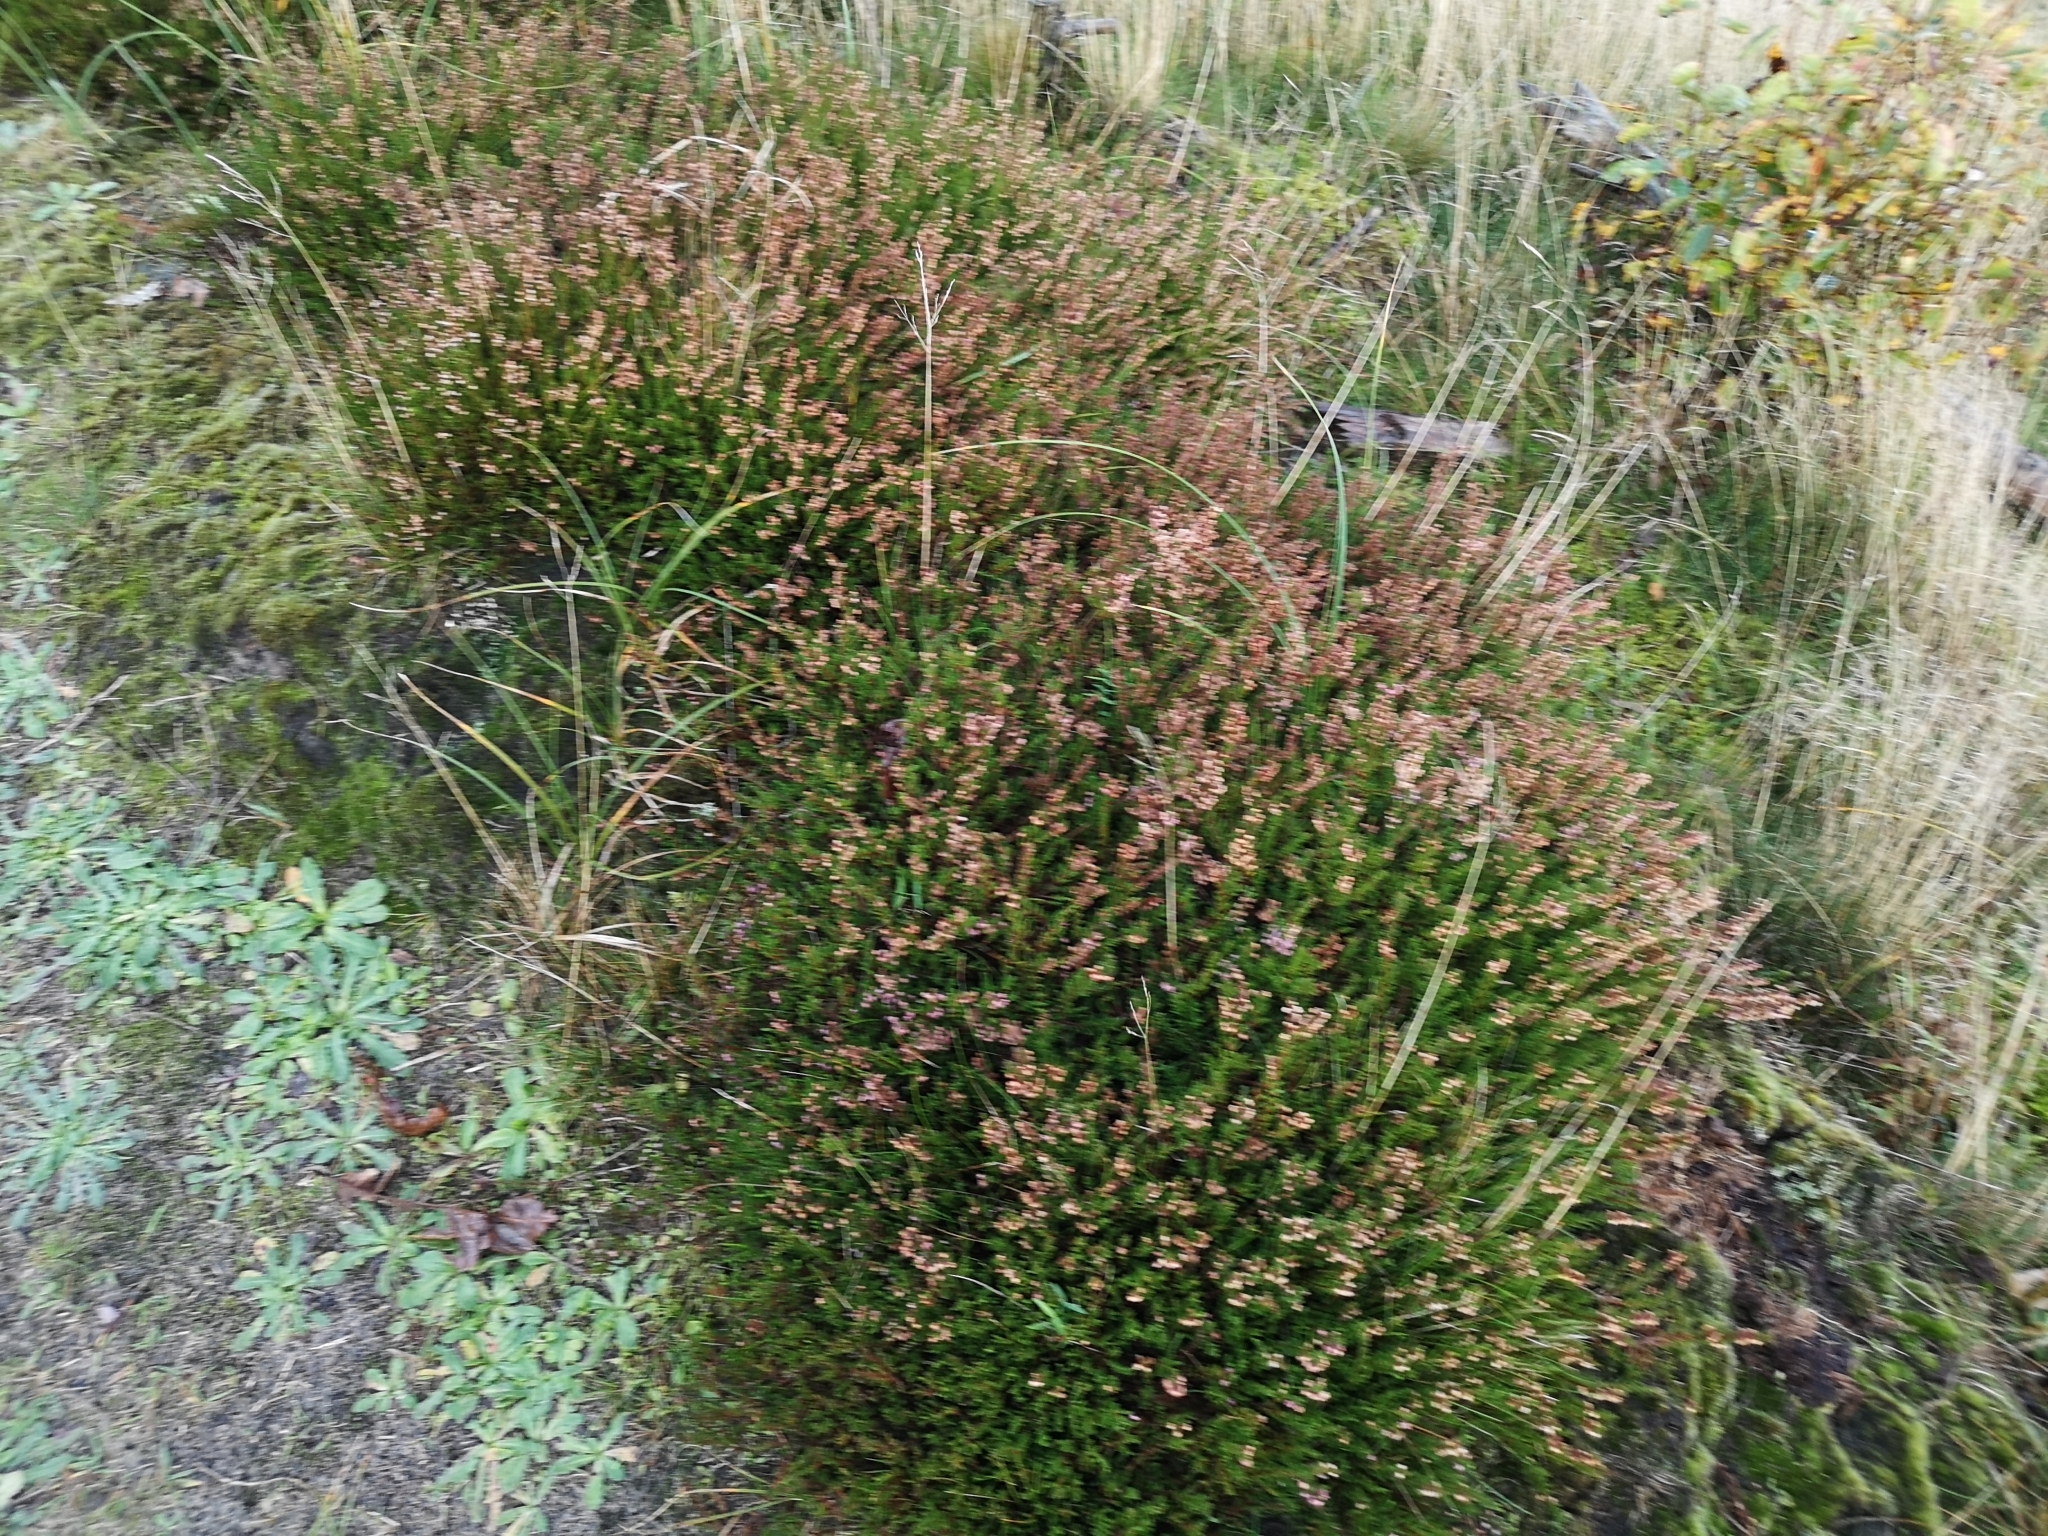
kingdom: Plantae
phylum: Tracheophyta
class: Magnoliopsida
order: Ericales
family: Ericaceae
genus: Calluna
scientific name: Calluna vulgaris
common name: Heather
